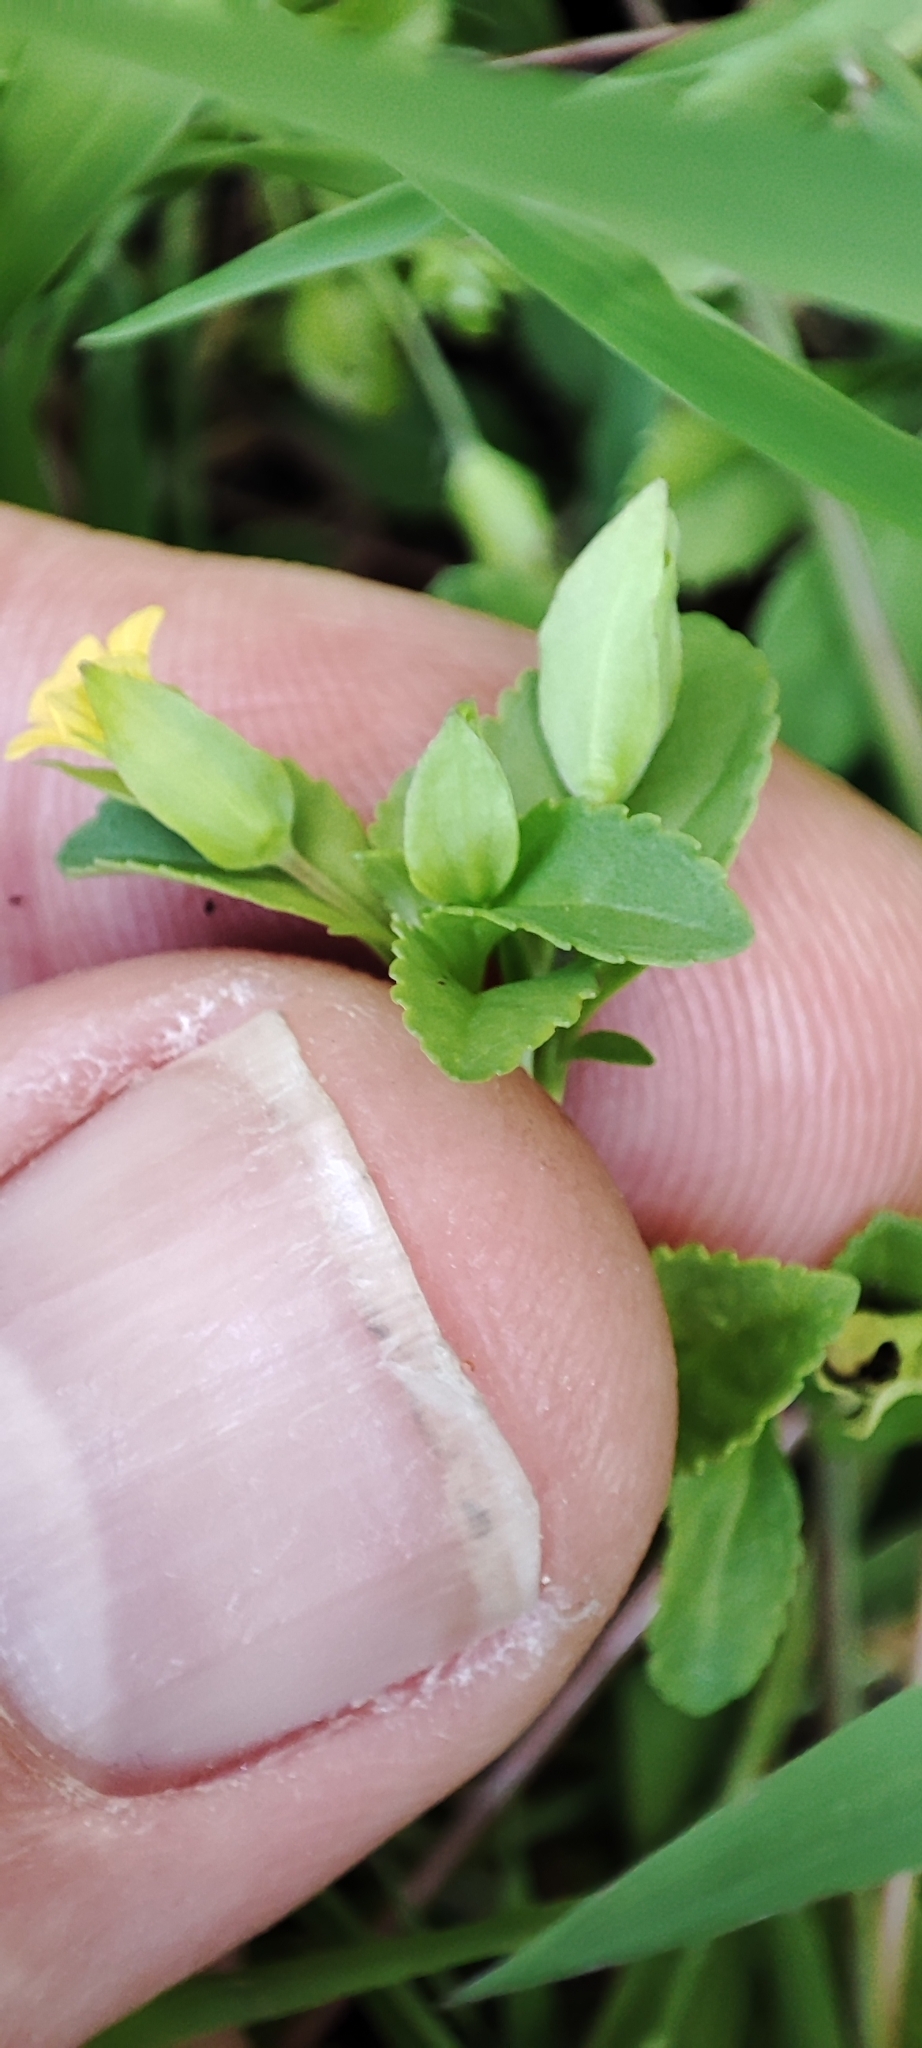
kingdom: Plantae
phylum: Tracheophyta
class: Magnoliopsida
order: Lamiales
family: Plantaginaceae
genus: Mecardonia
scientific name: Mecardonia procumbens
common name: Baby jump-up
